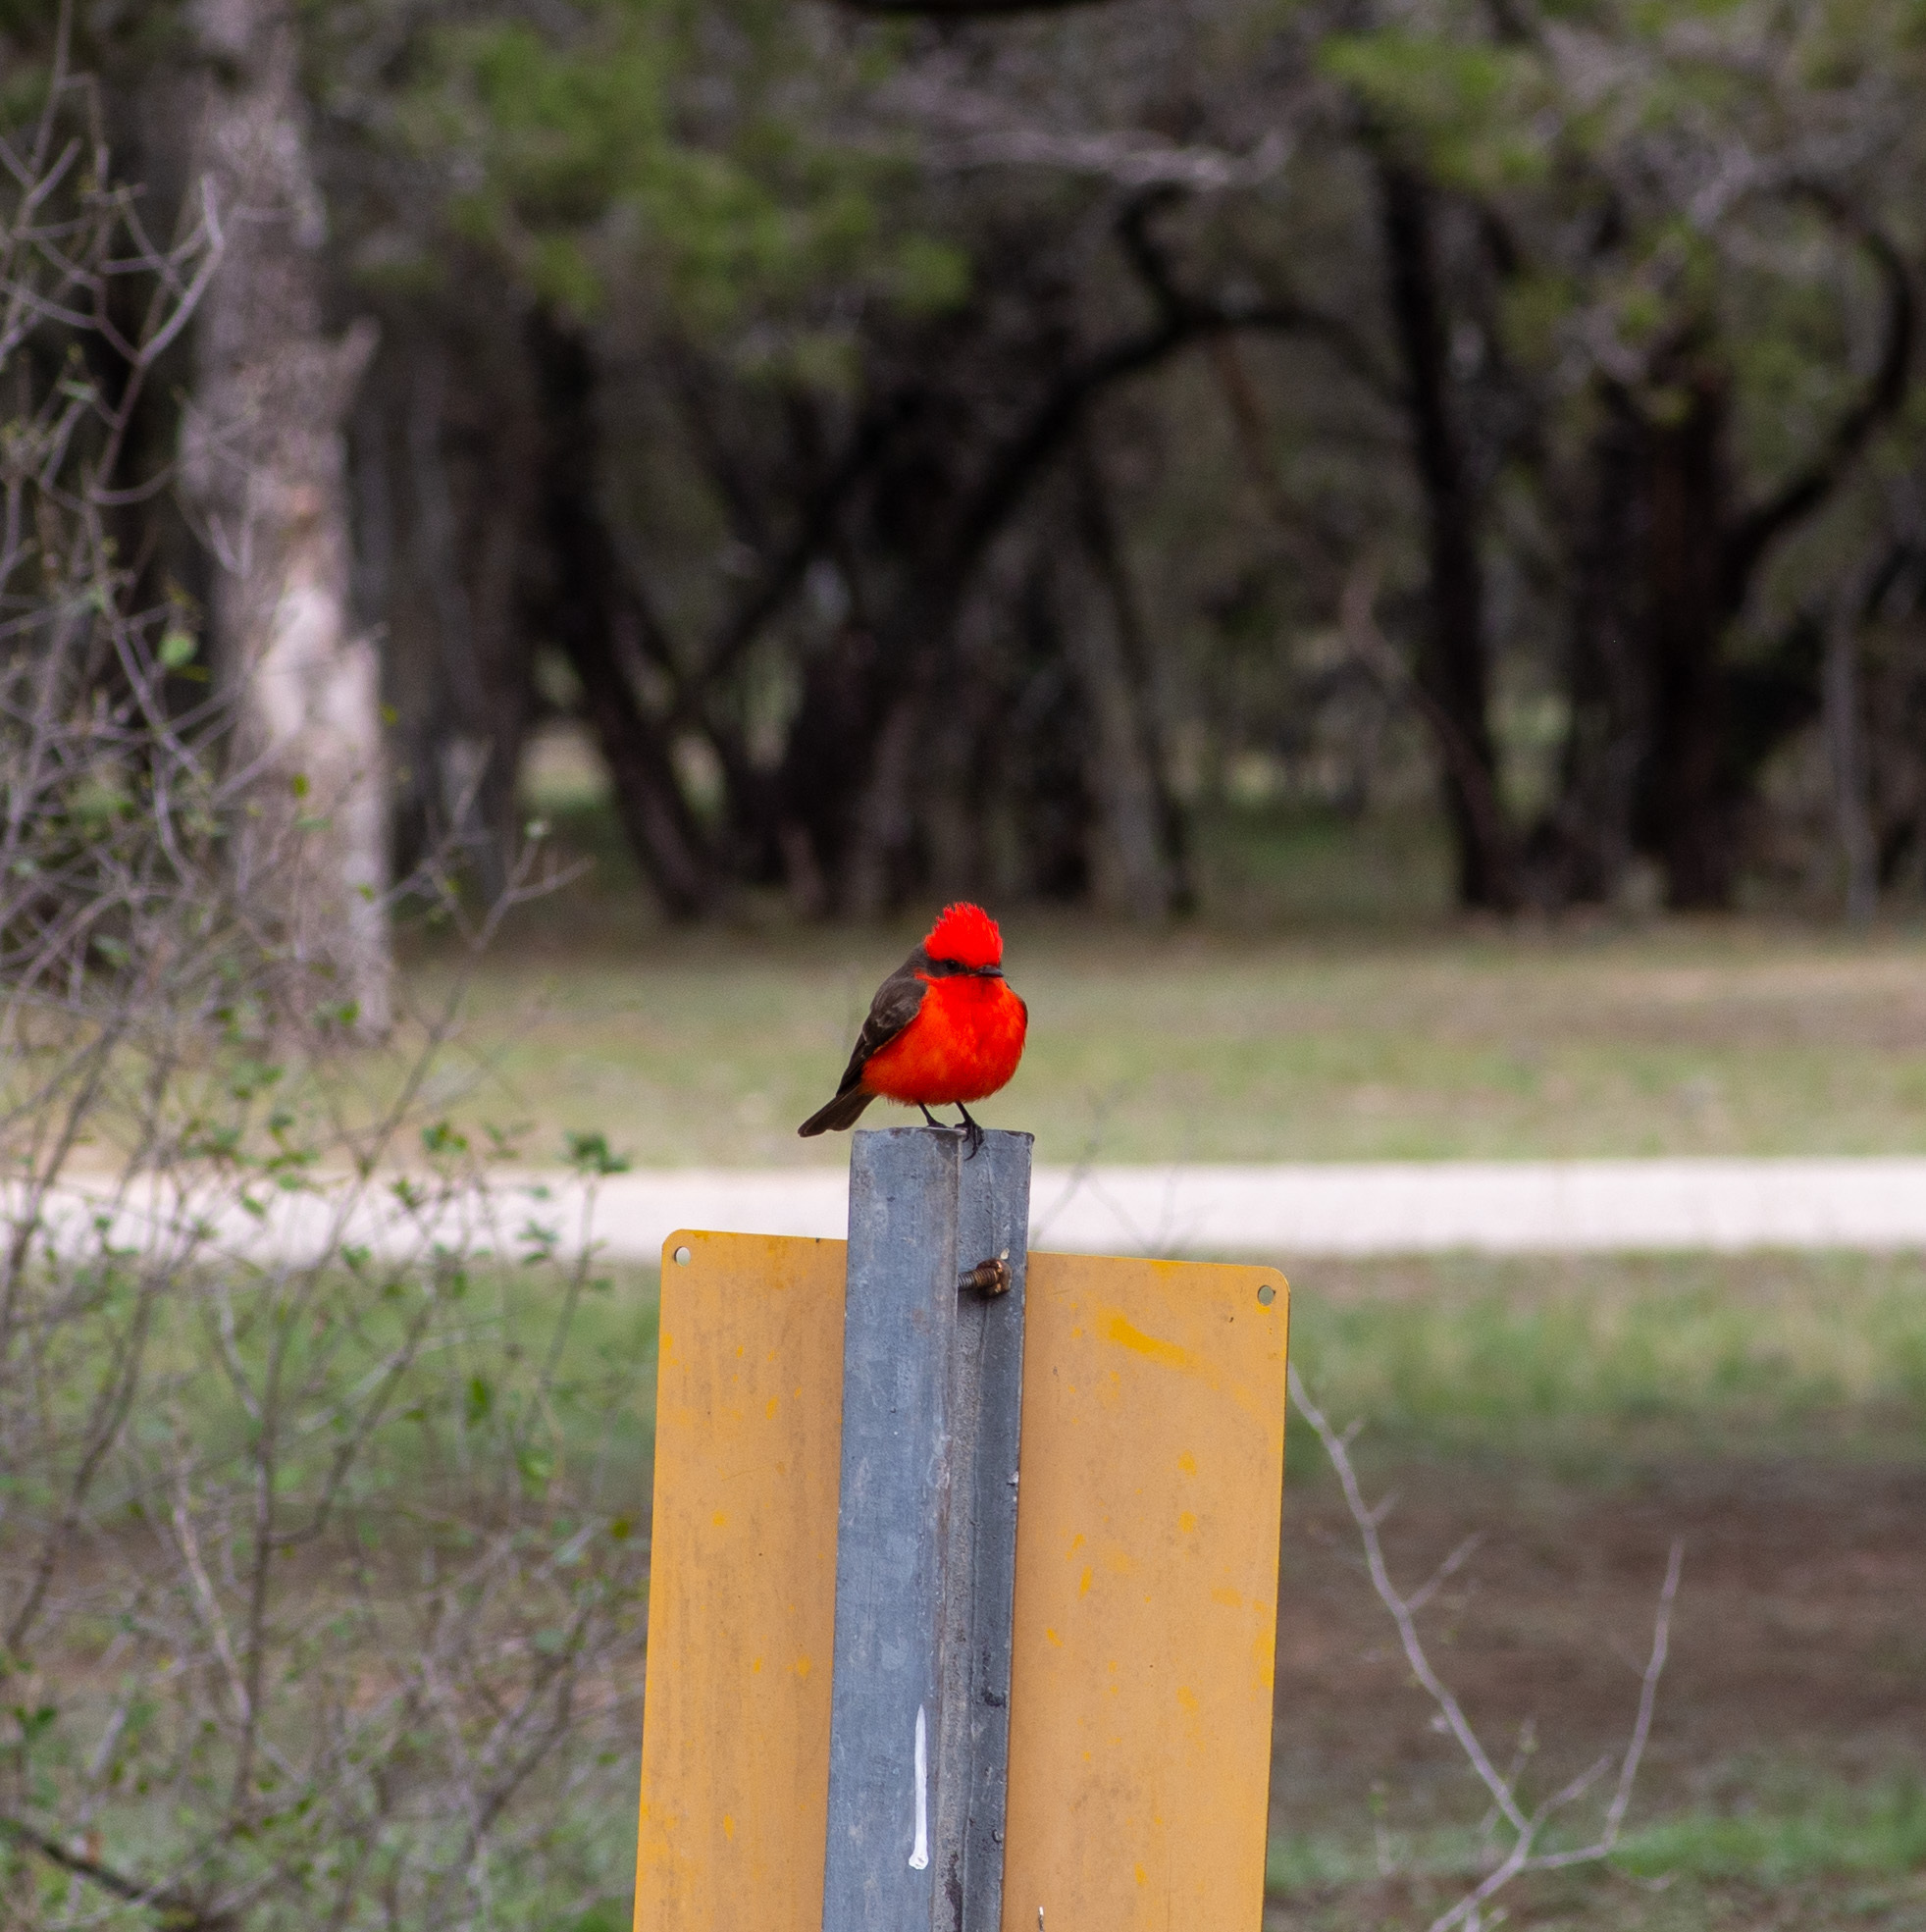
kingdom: Animalia
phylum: Chordata
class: Aves
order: Passeriformes
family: Tyrannidae
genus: Pyrocephalus
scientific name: Pyrocephalus rubinus
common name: Vermilion flycatcher
